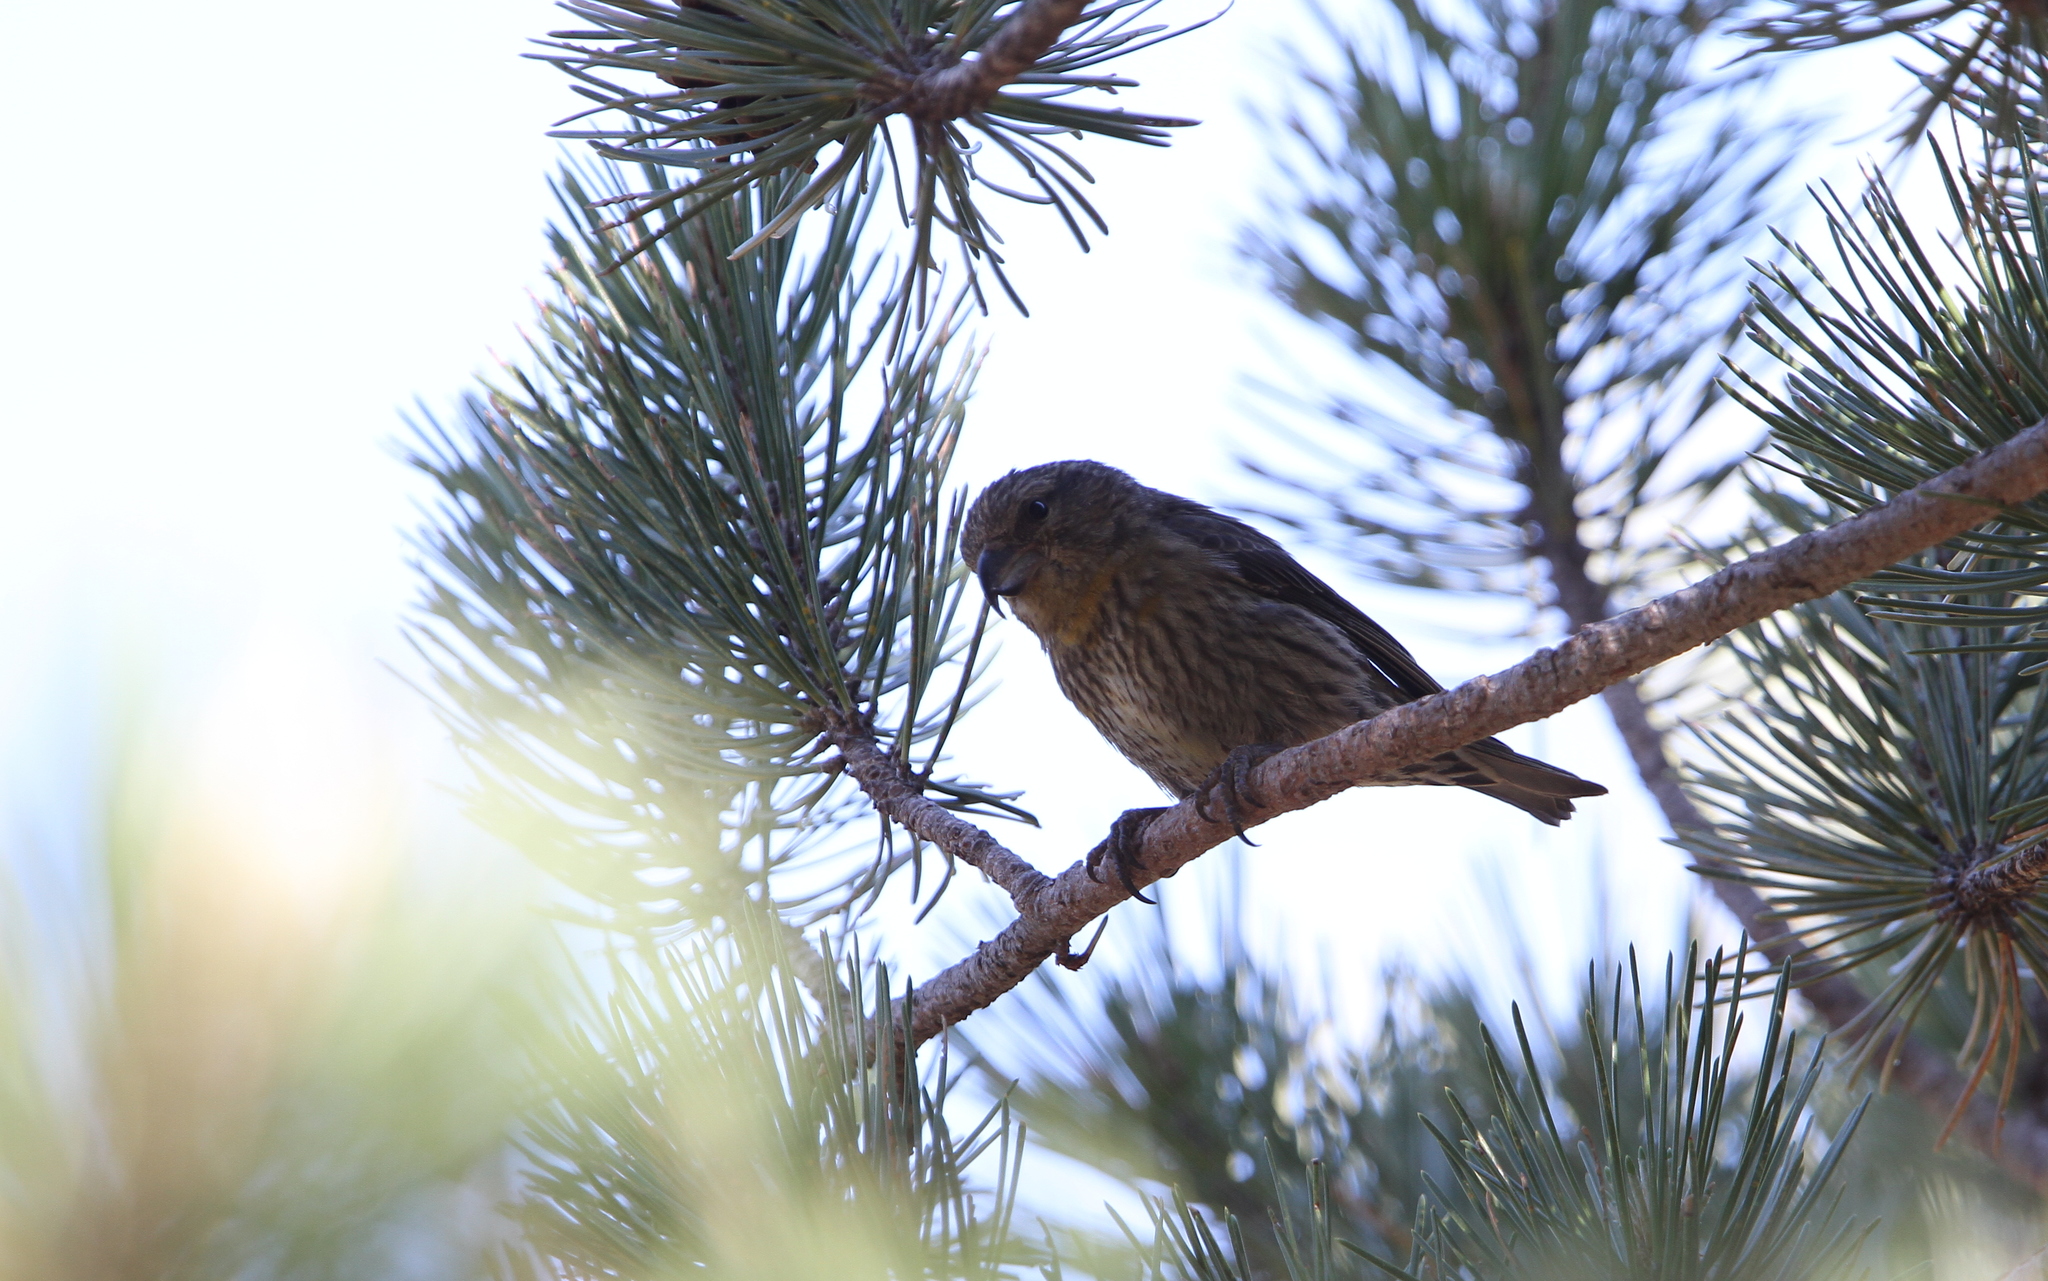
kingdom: Animalia
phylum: Chordata
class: Aves
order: Passeriformes
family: Fringillidae
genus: Loxia
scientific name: Loxia curvirostra
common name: Red crossbill
